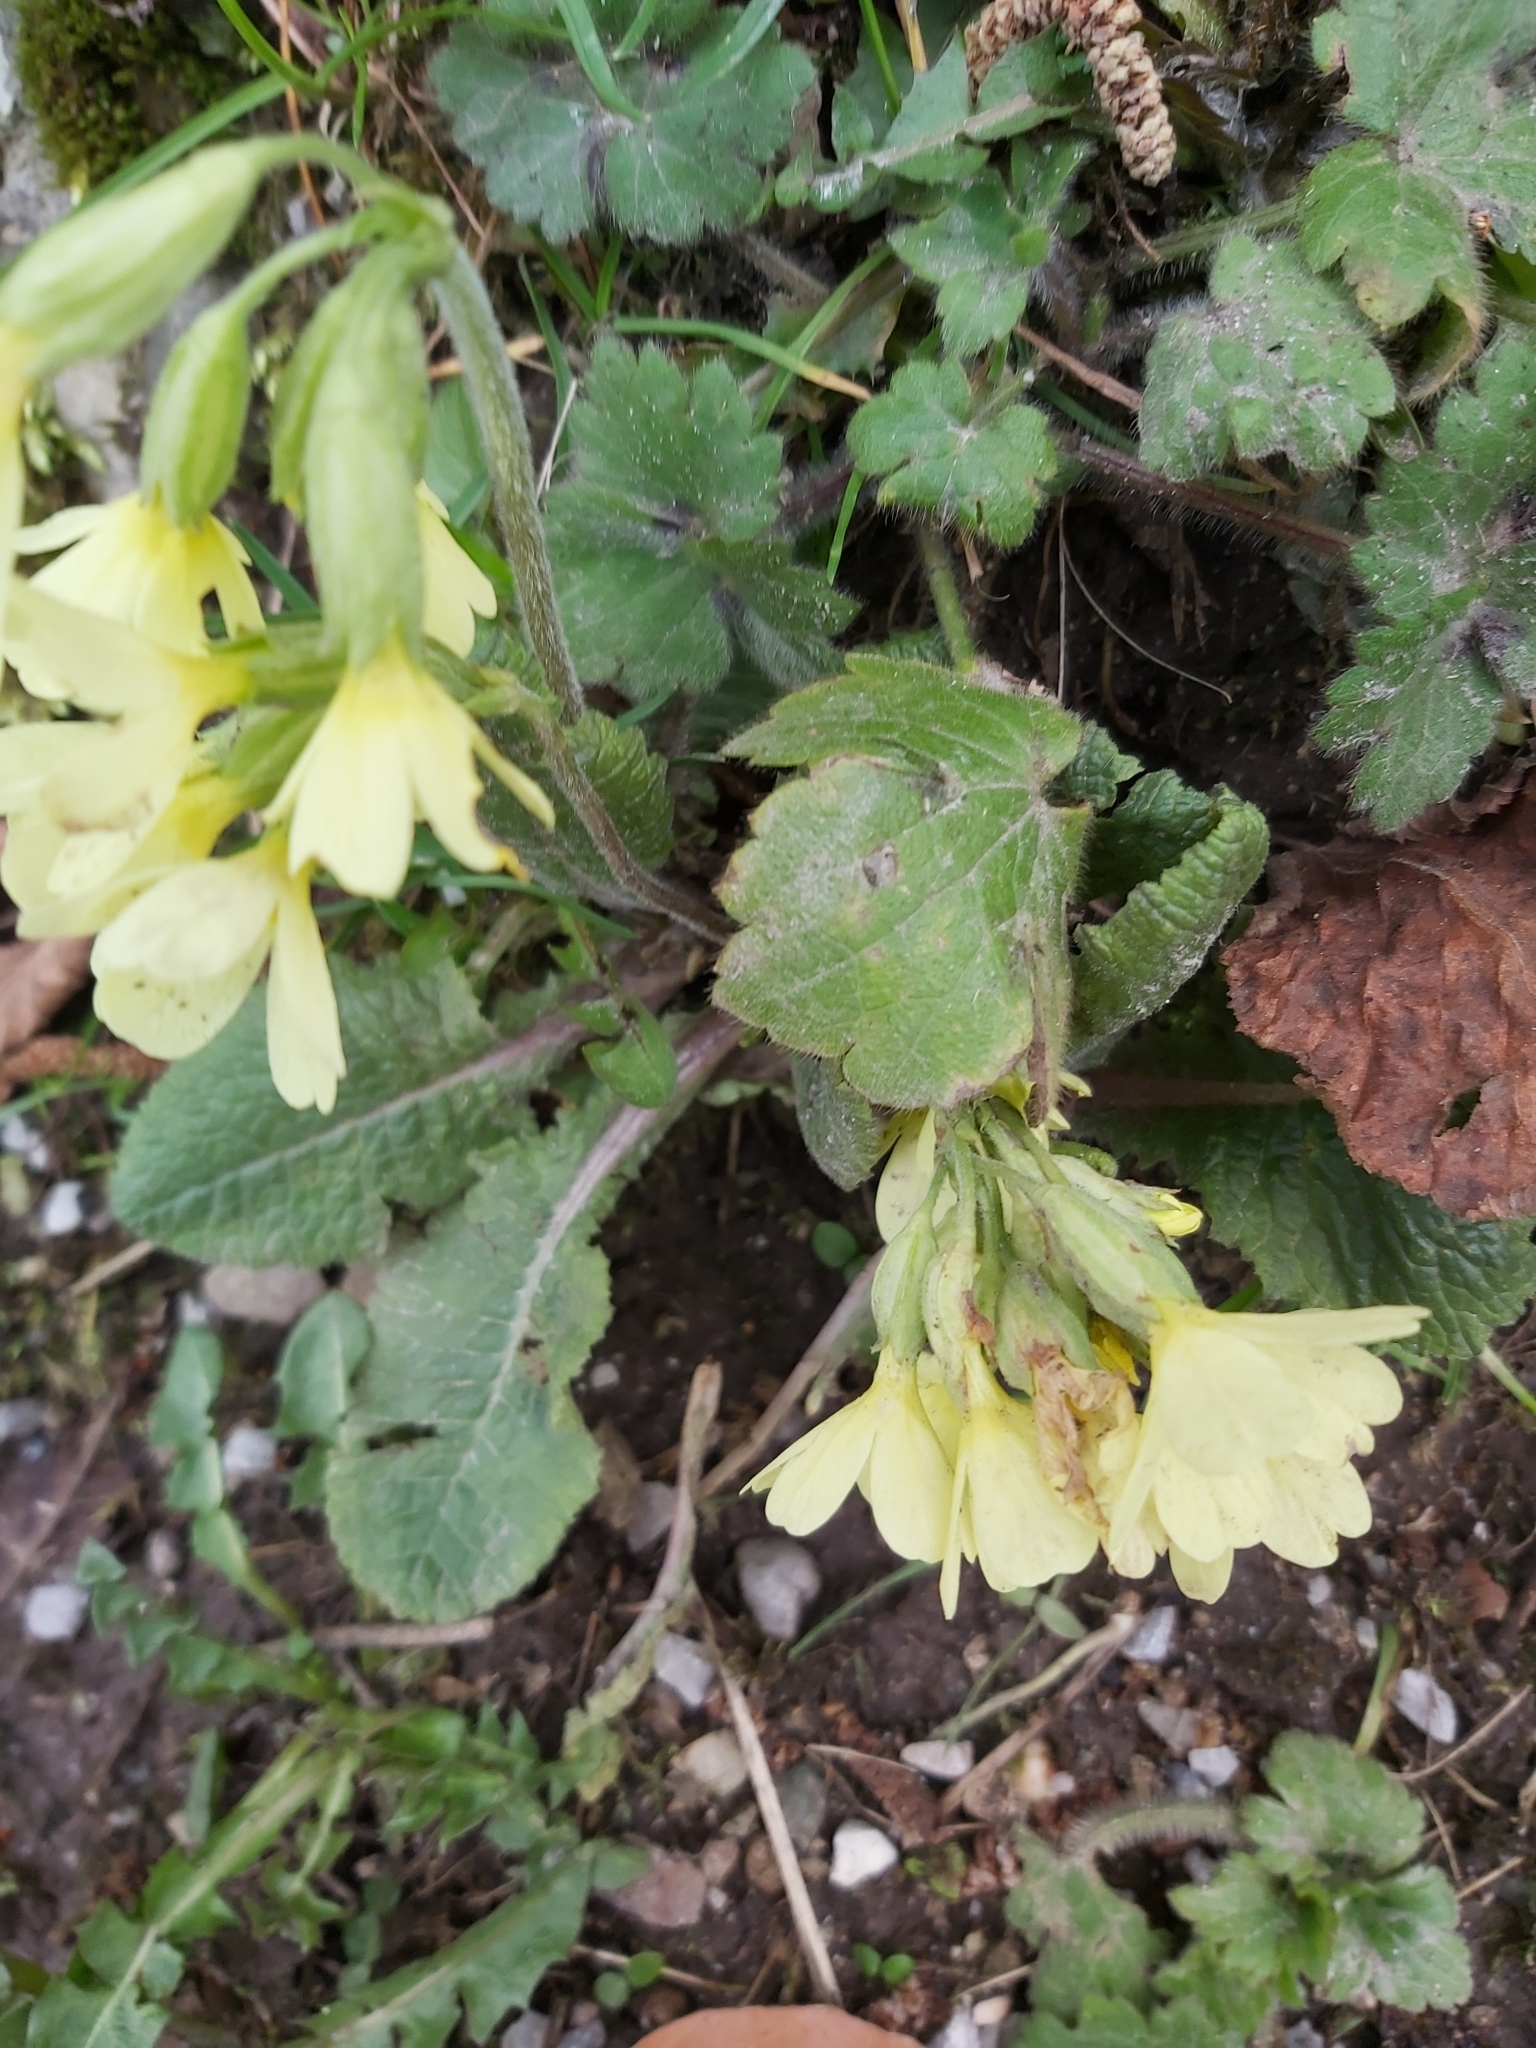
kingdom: Plantae
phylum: Tracheophyta
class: Magnoliopsida
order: Ericales
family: Primulaceae
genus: Primula
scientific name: Primula elatior
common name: Oxlip
